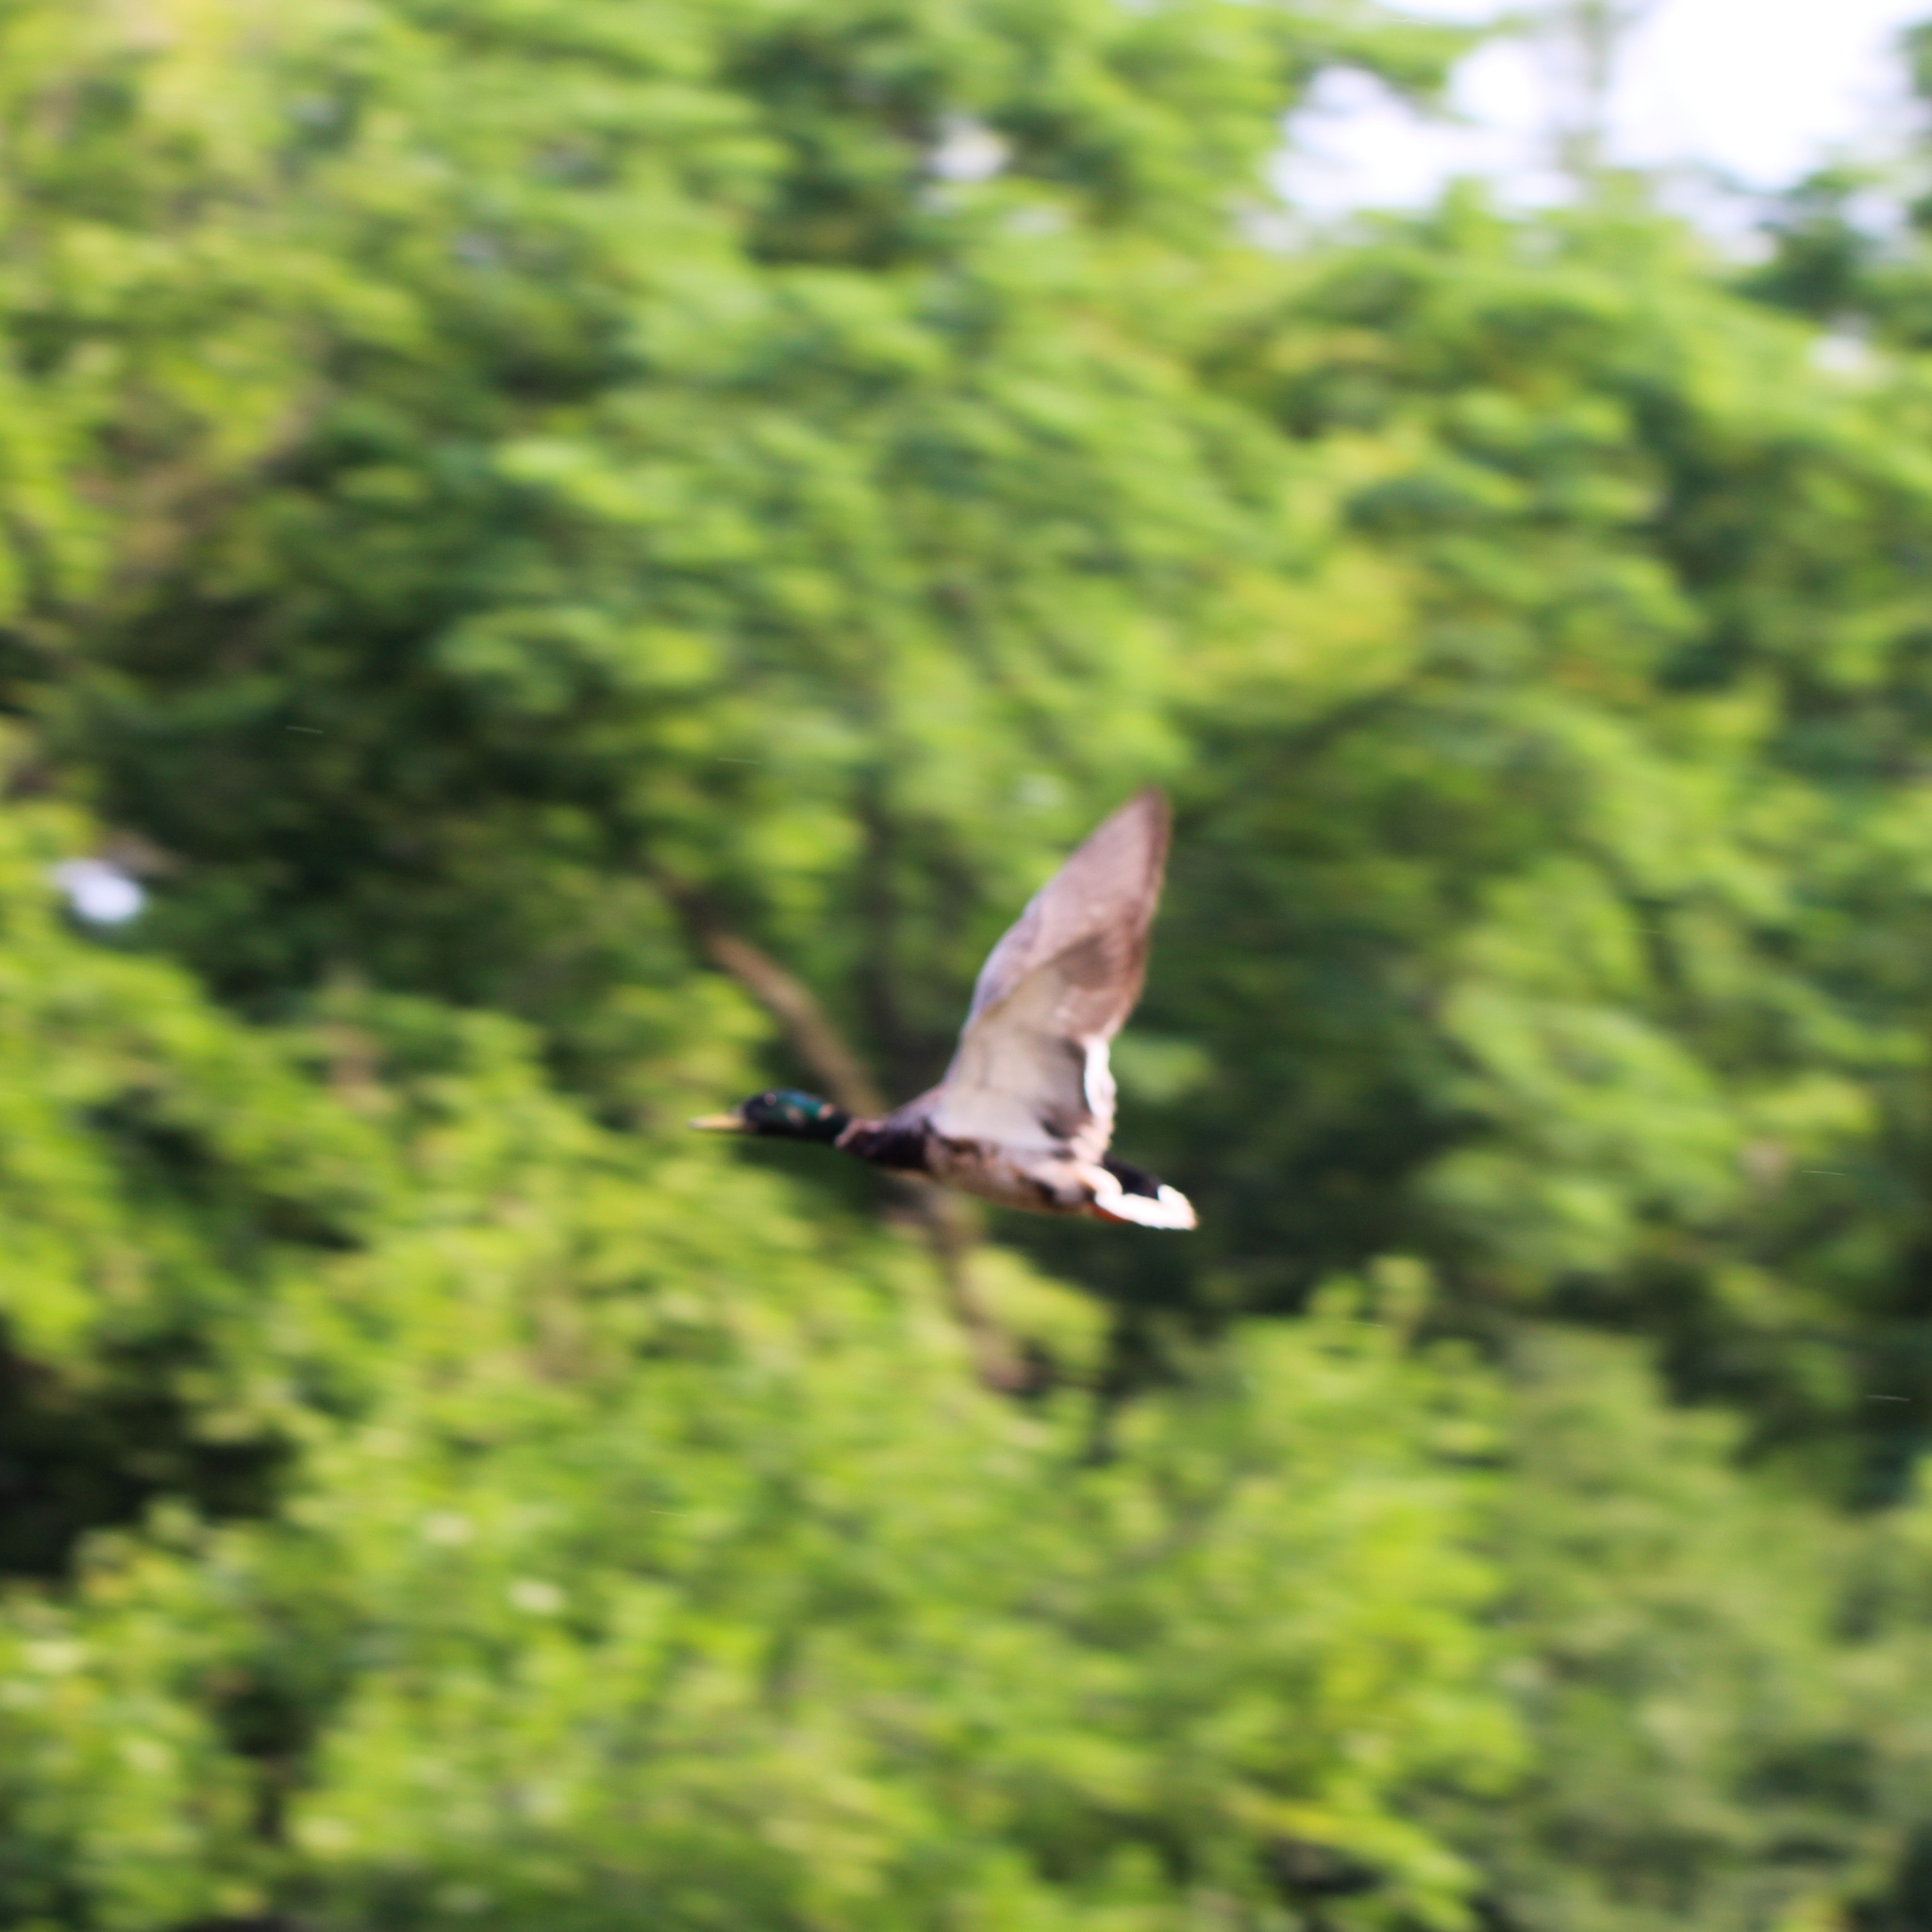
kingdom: Animalia
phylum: Chordata
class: Aves
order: Anseriformes
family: Anatidae
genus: Anas
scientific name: Anas platyrhynchos
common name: Mallard
